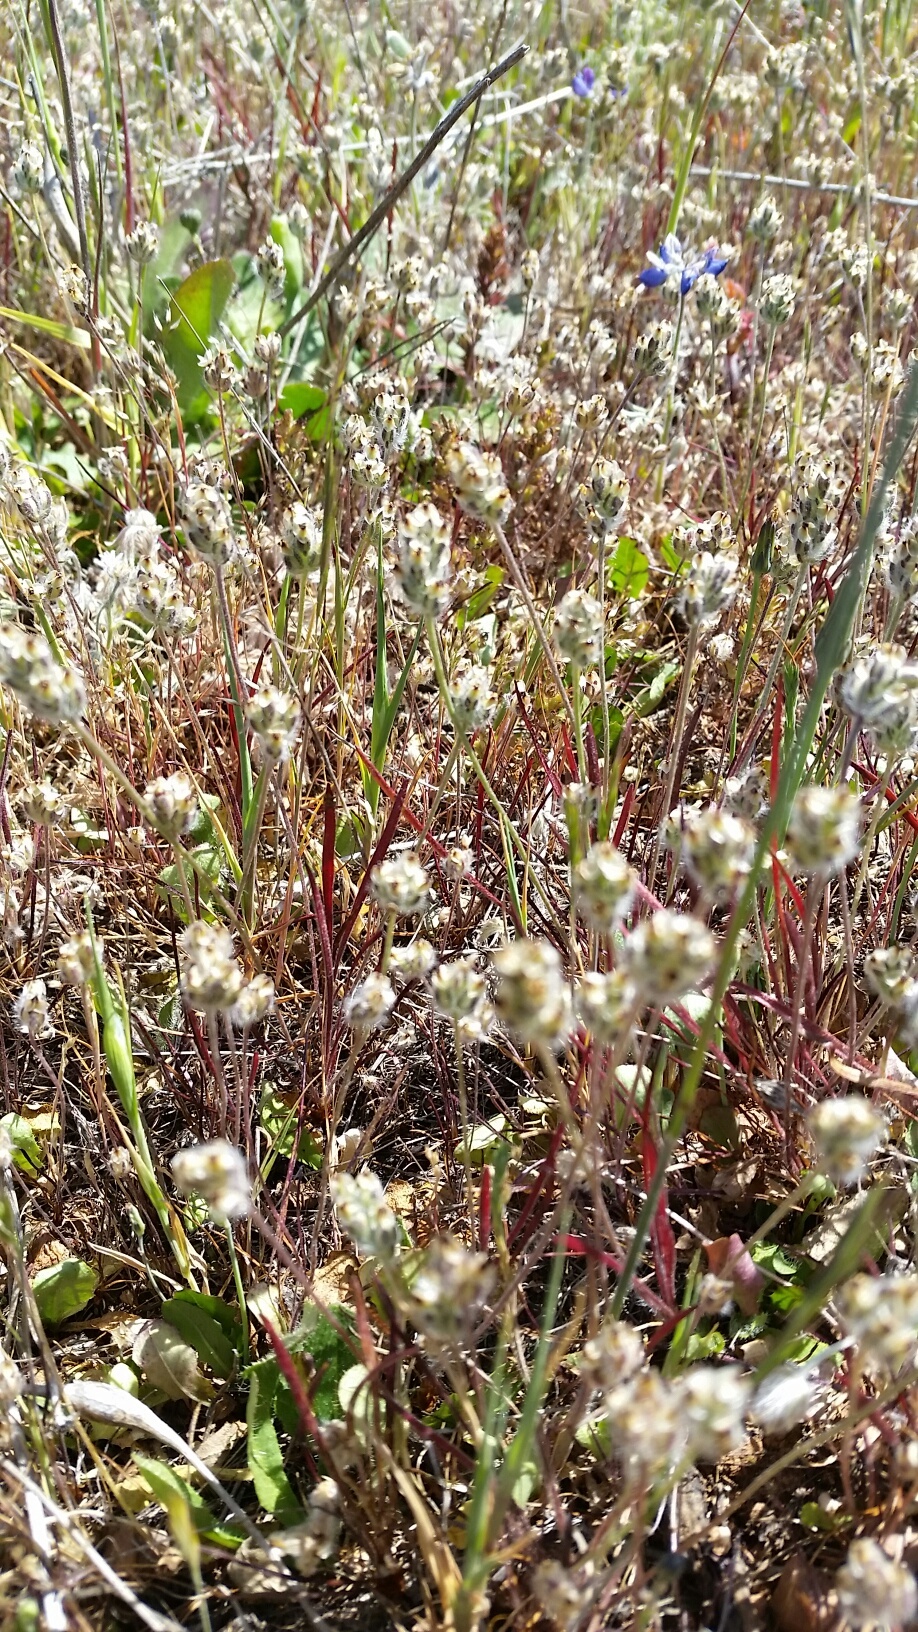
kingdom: Plantae
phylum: Tracheophyta
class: Magnoliopsida
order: Lamiales
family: Plantaginaceae
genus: Plantago
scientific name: Plantago erecta
